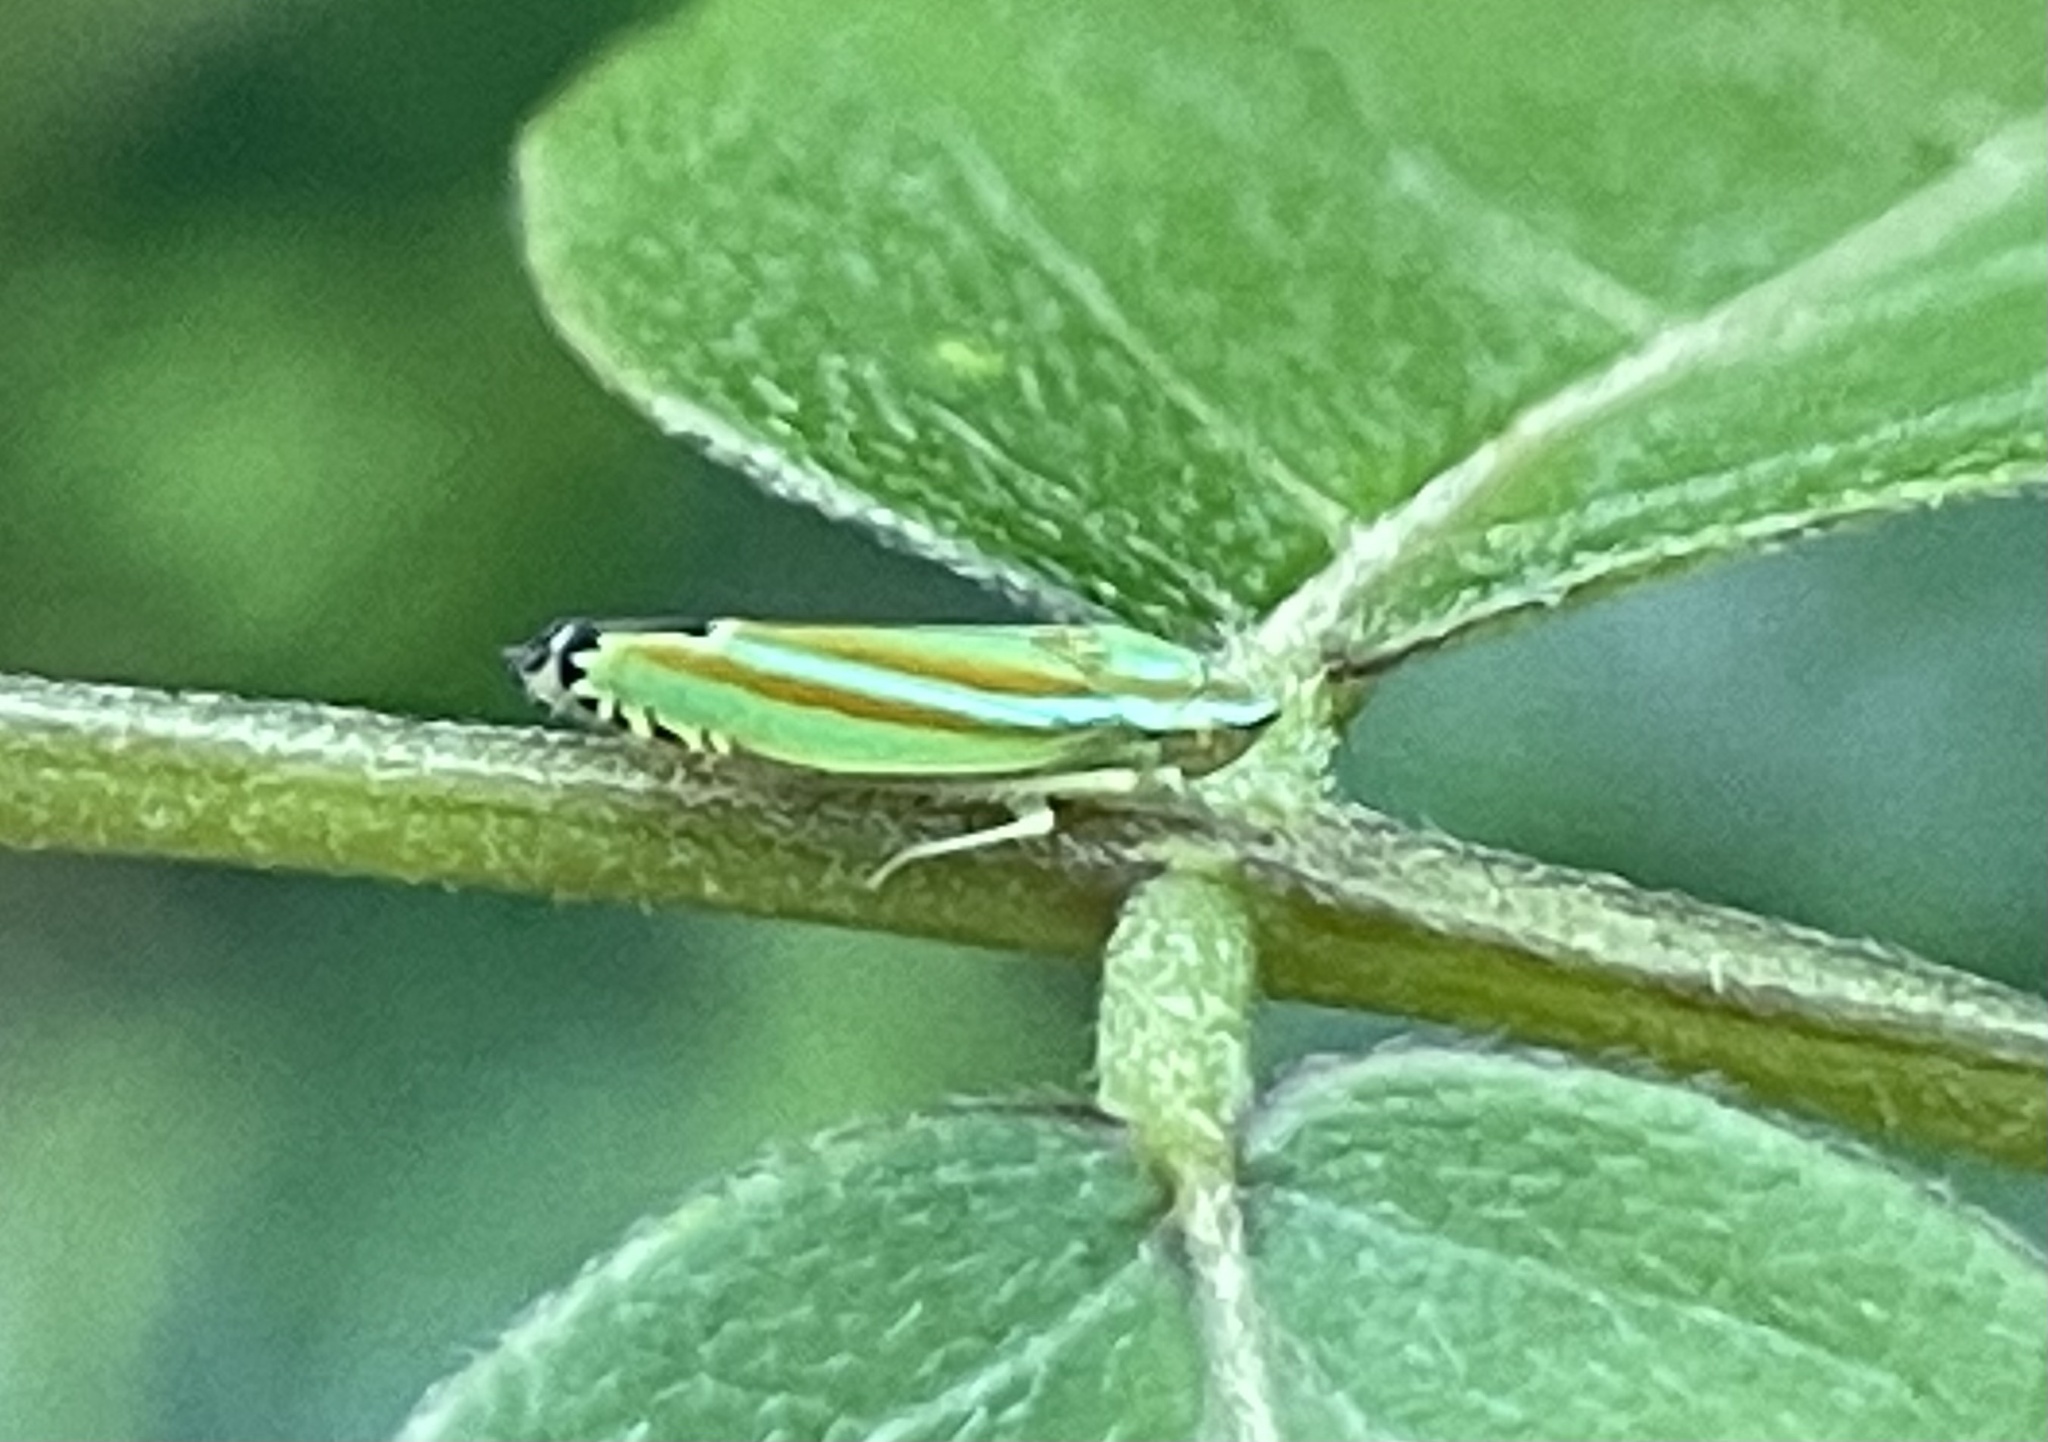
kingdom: Animalia
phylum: Arthropoda
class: Insecta
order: Hemiptera
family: Cicadellidae
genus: Graphocephala
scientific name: Graphocephala versuta
